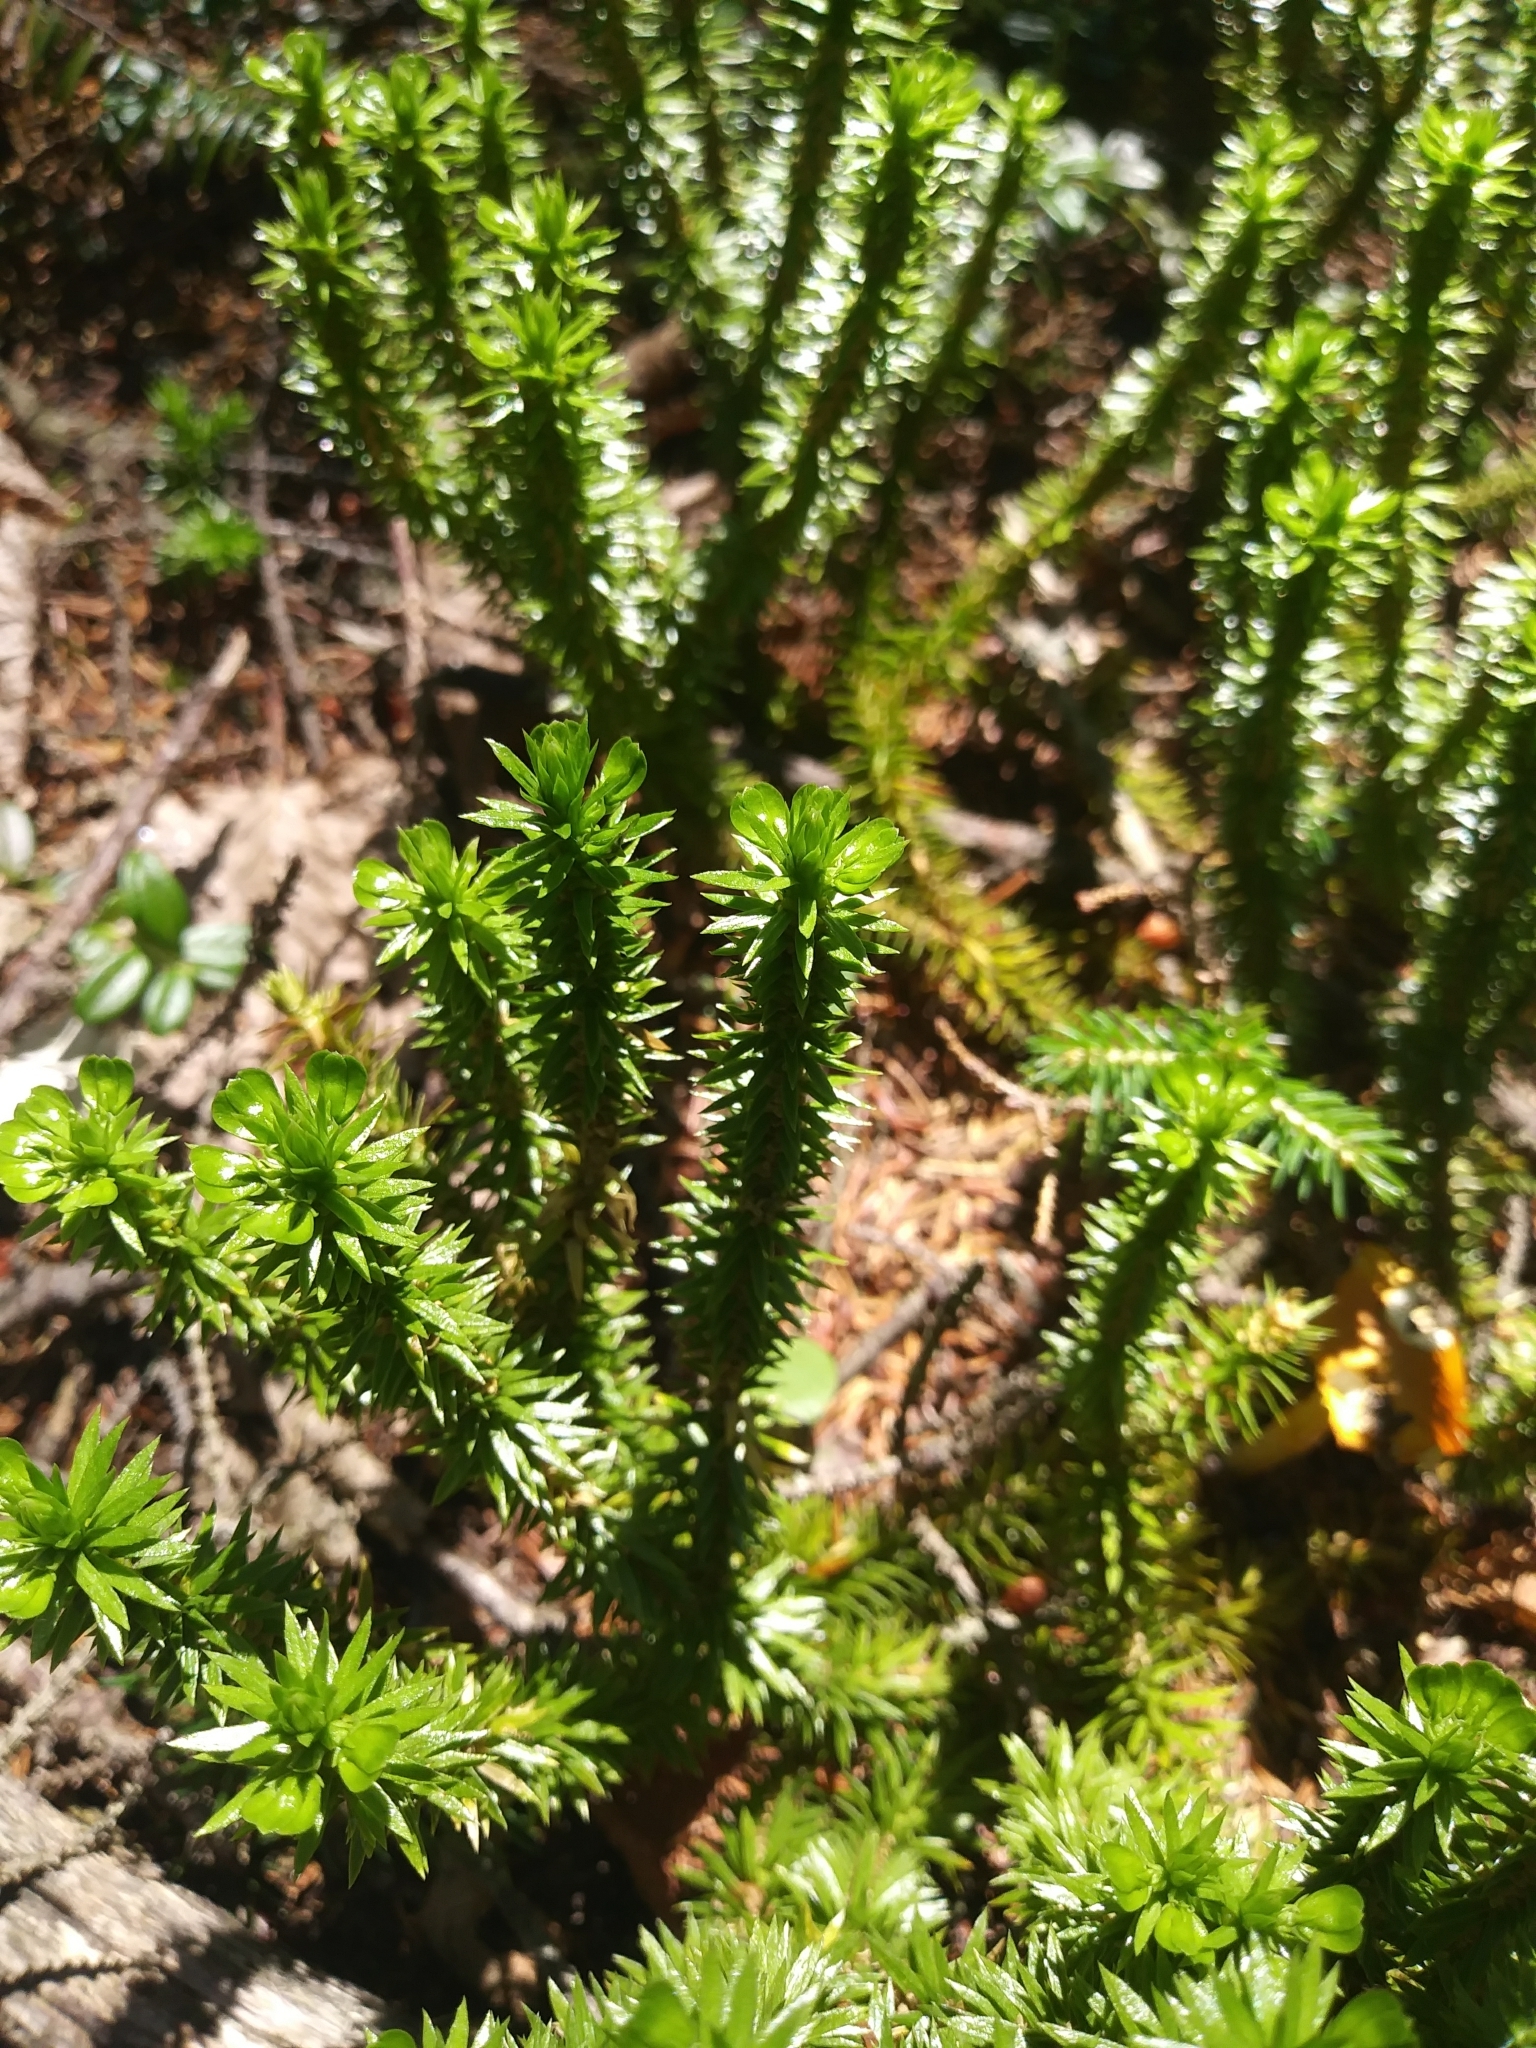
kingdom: Plantae
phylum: Tracheophyta
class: Lycopodiopsida
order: Lycopodiales
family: Lycopodiaceae
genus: Huperzia
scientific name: Huperzia lucidula
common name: Shining clubmoss
